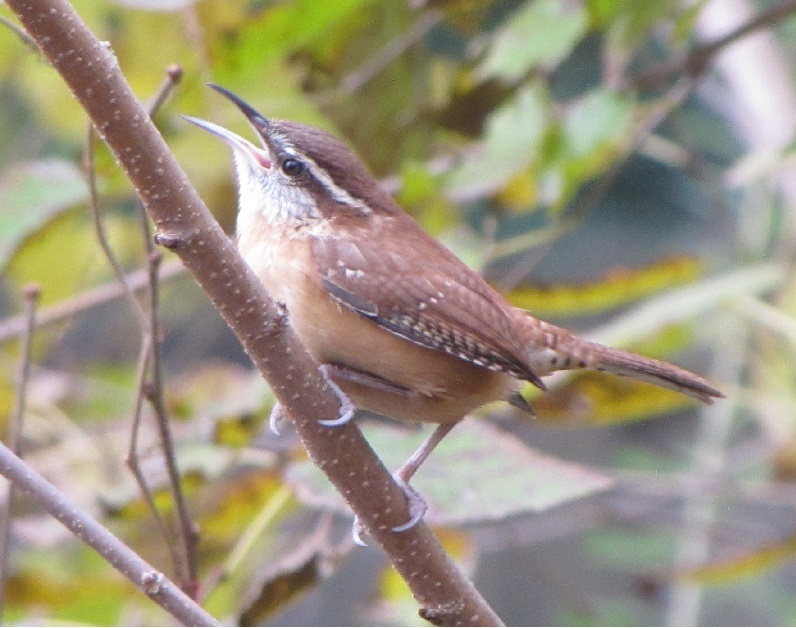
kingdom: Animalia
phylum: Chordata
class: Aves
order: Passeriformes
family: Troglodytidae
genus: Thryothorus
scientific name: Thryothorus ludovicianus
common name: Carolina wren
